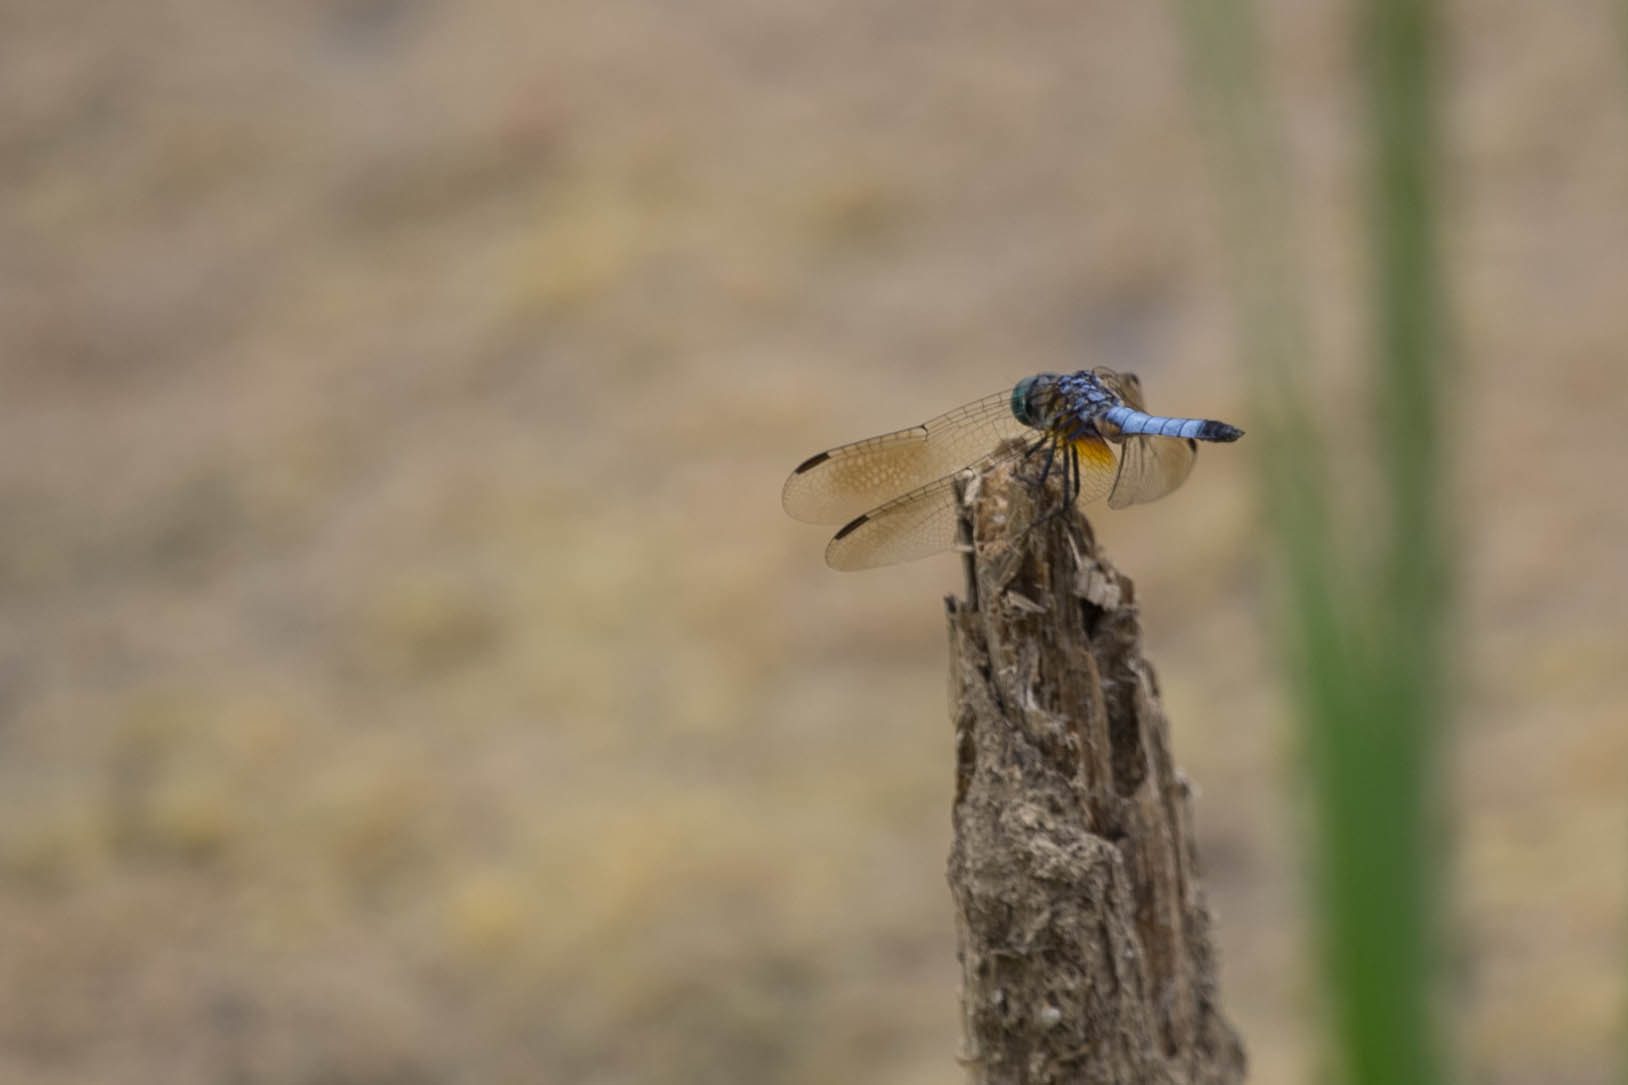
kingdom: Animalia
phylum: Arthropoda
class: Insecta
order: Odonata
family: Libellulidae
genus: Pachydiplax
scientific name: Pachydiplax longipennis
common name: Blue dasher
